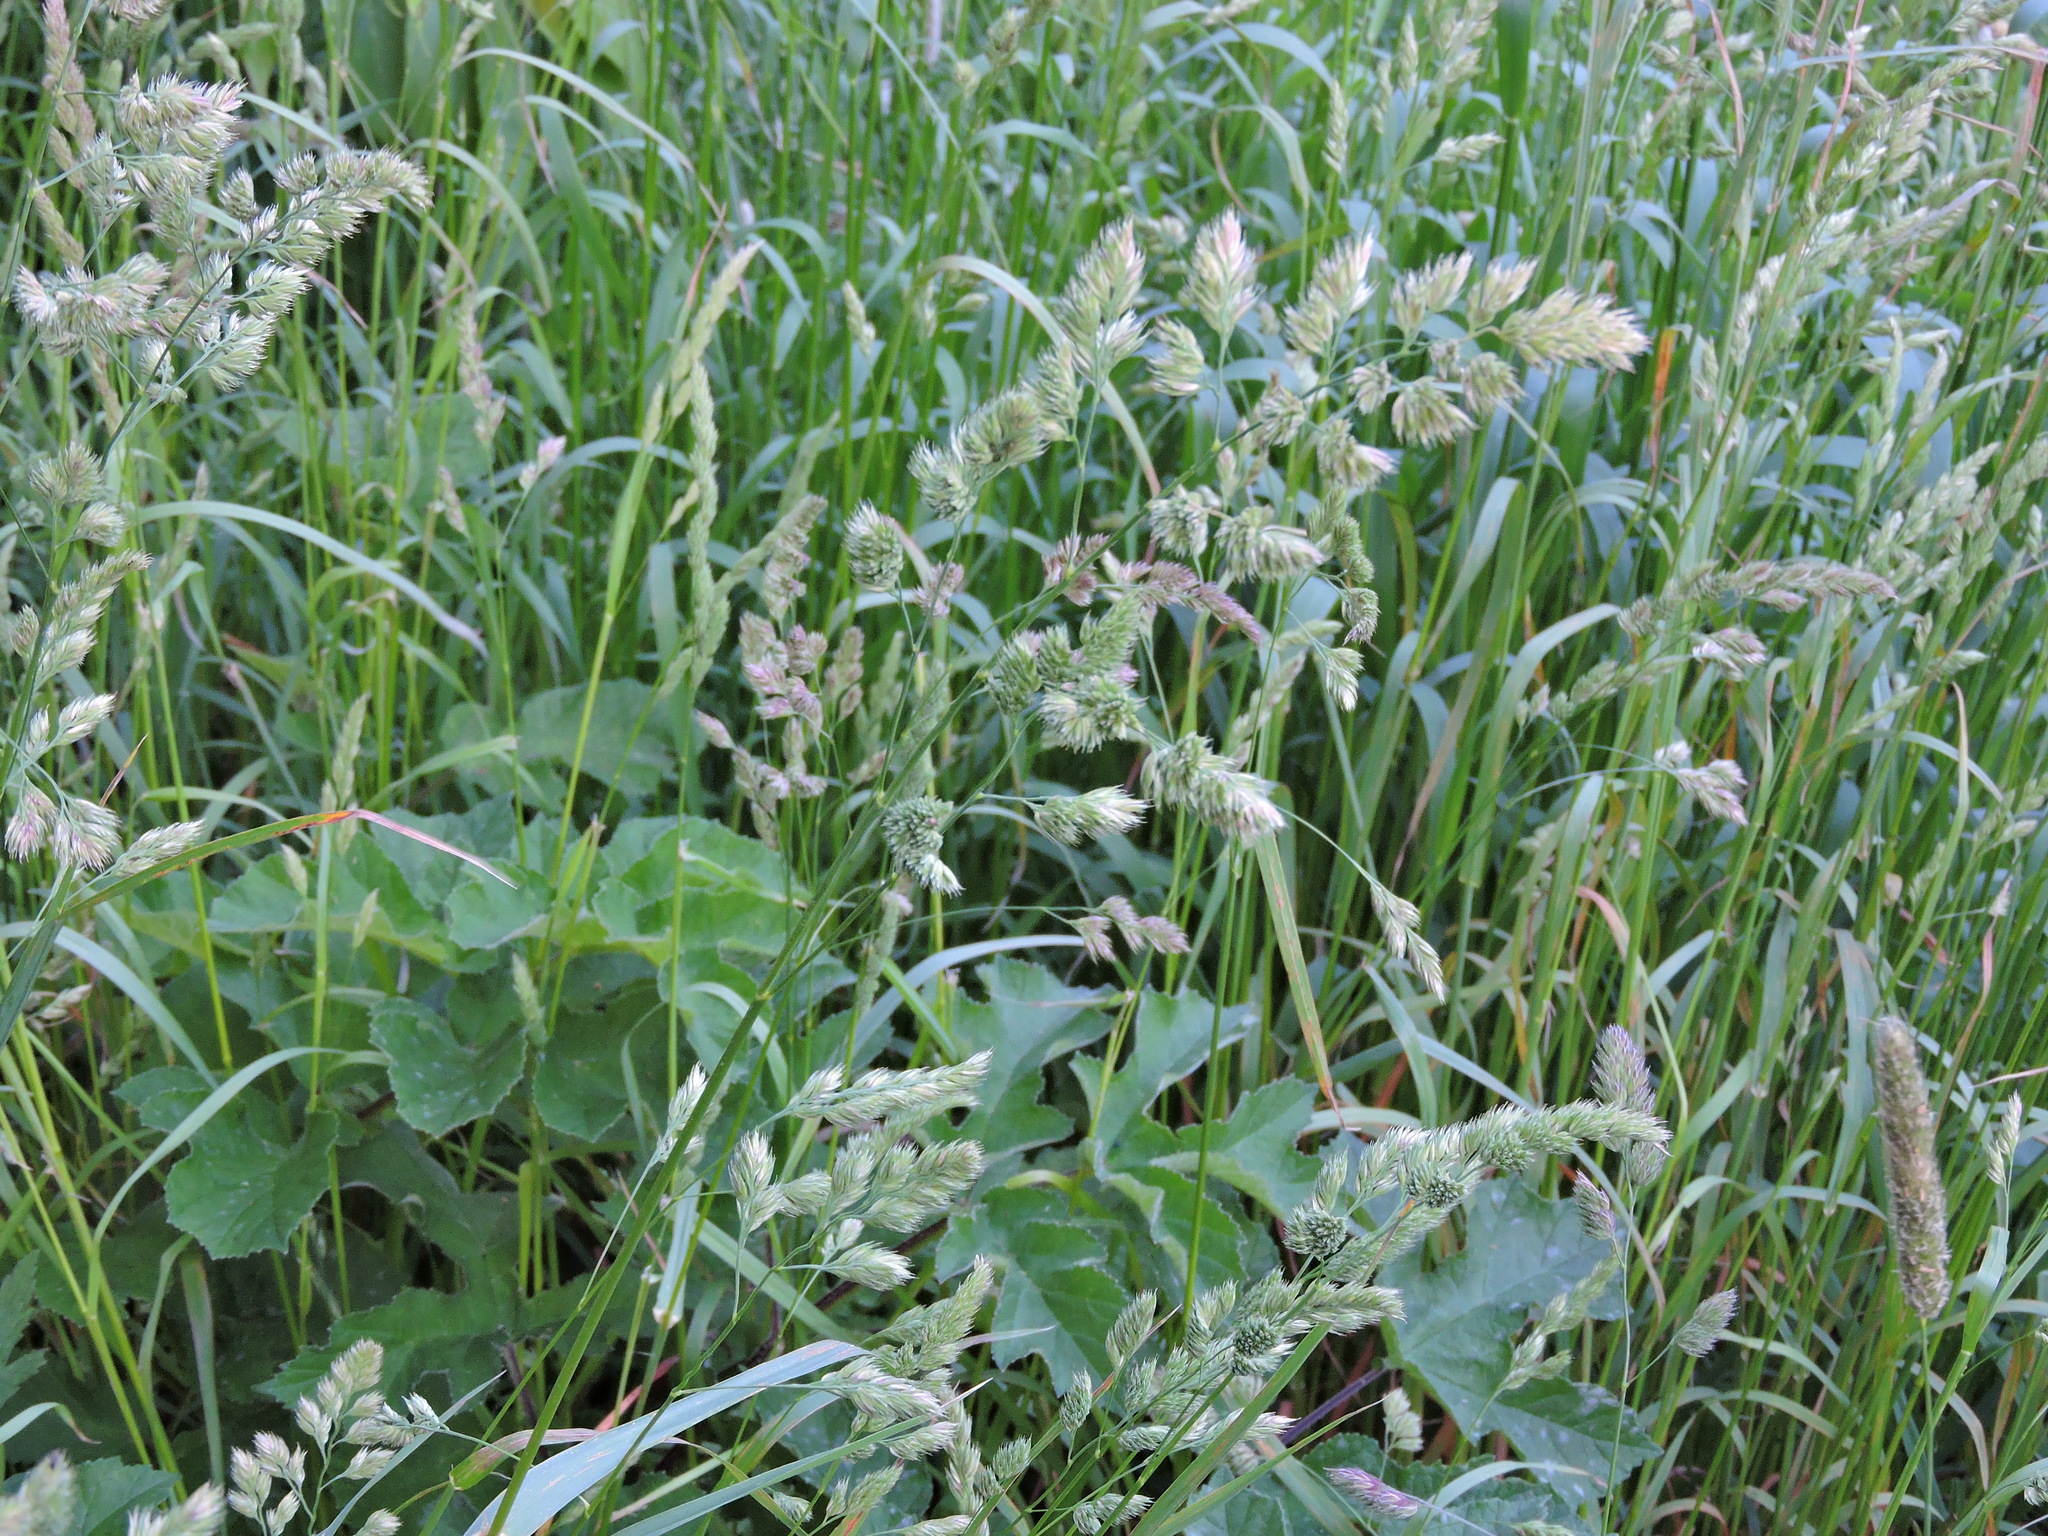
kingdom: Plantae
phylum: Tracheophyta
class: Liliopsida
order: Poales
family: Poaceae
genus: Dactylis
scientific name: Dactylis glomerata
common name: Orchardgrass
